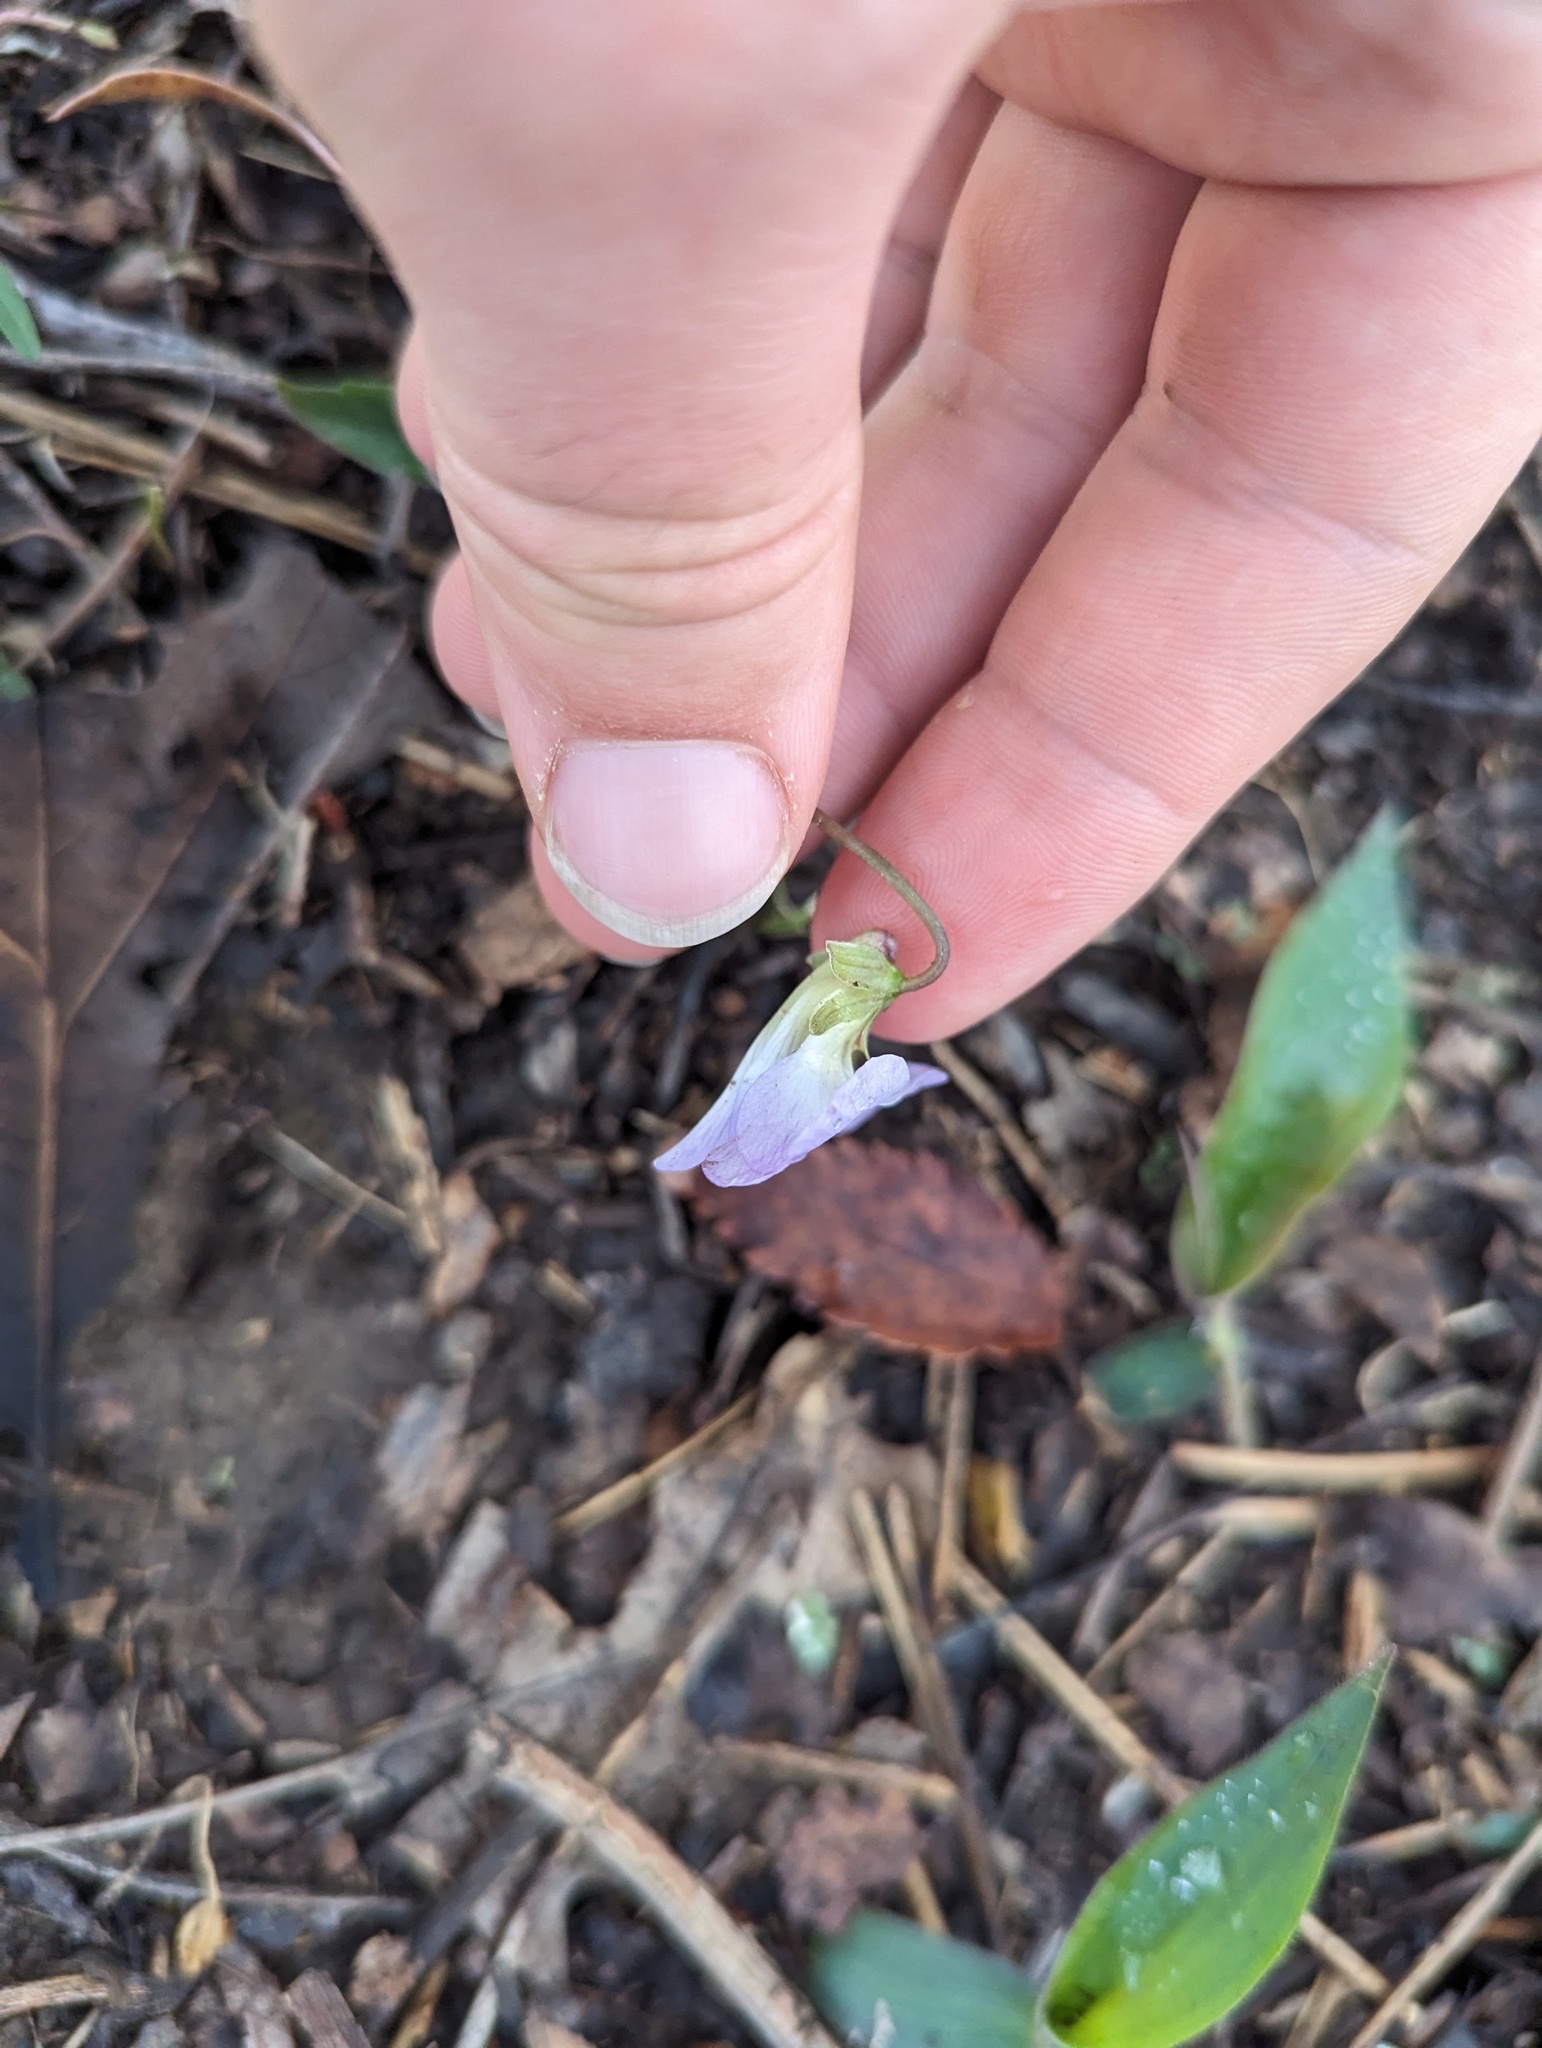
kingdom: Plantae
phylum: Tracheophyta
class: Magnoliopsida
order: Malpighiales
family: Violaceae
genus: Viola
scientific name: Viola palmata
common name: Early blue violet
